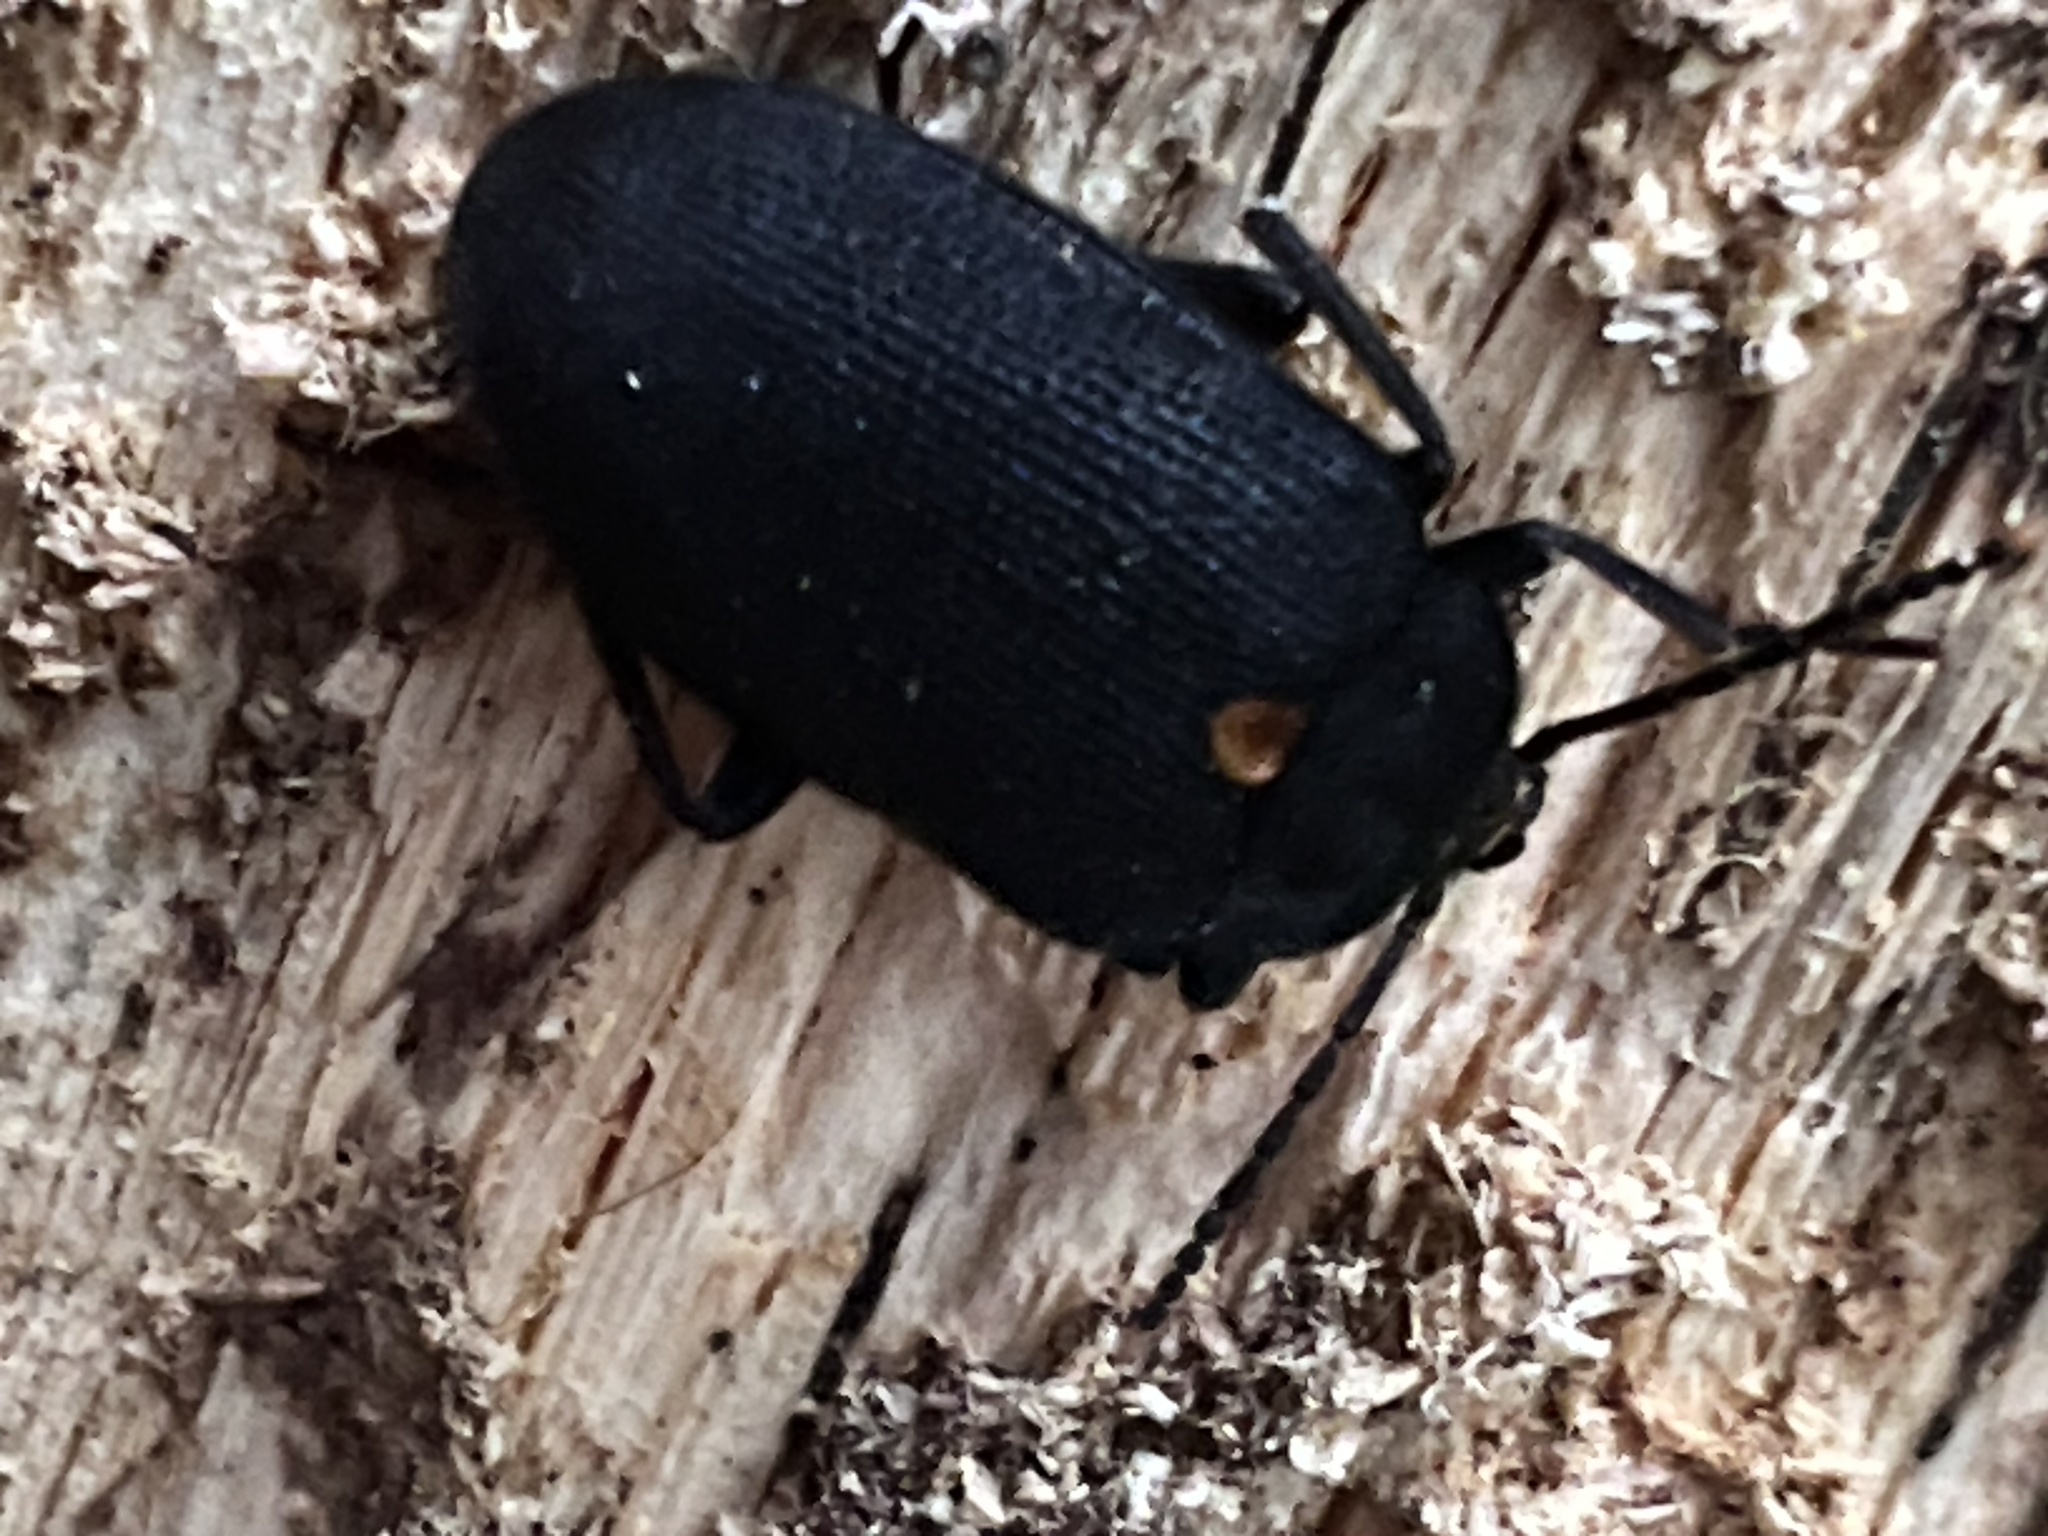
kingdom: Animalia
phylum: Arthropoda
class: Insecta
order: Coleoptera
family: Tetratomidae
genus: Penthe
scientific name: Penthe obliquata
